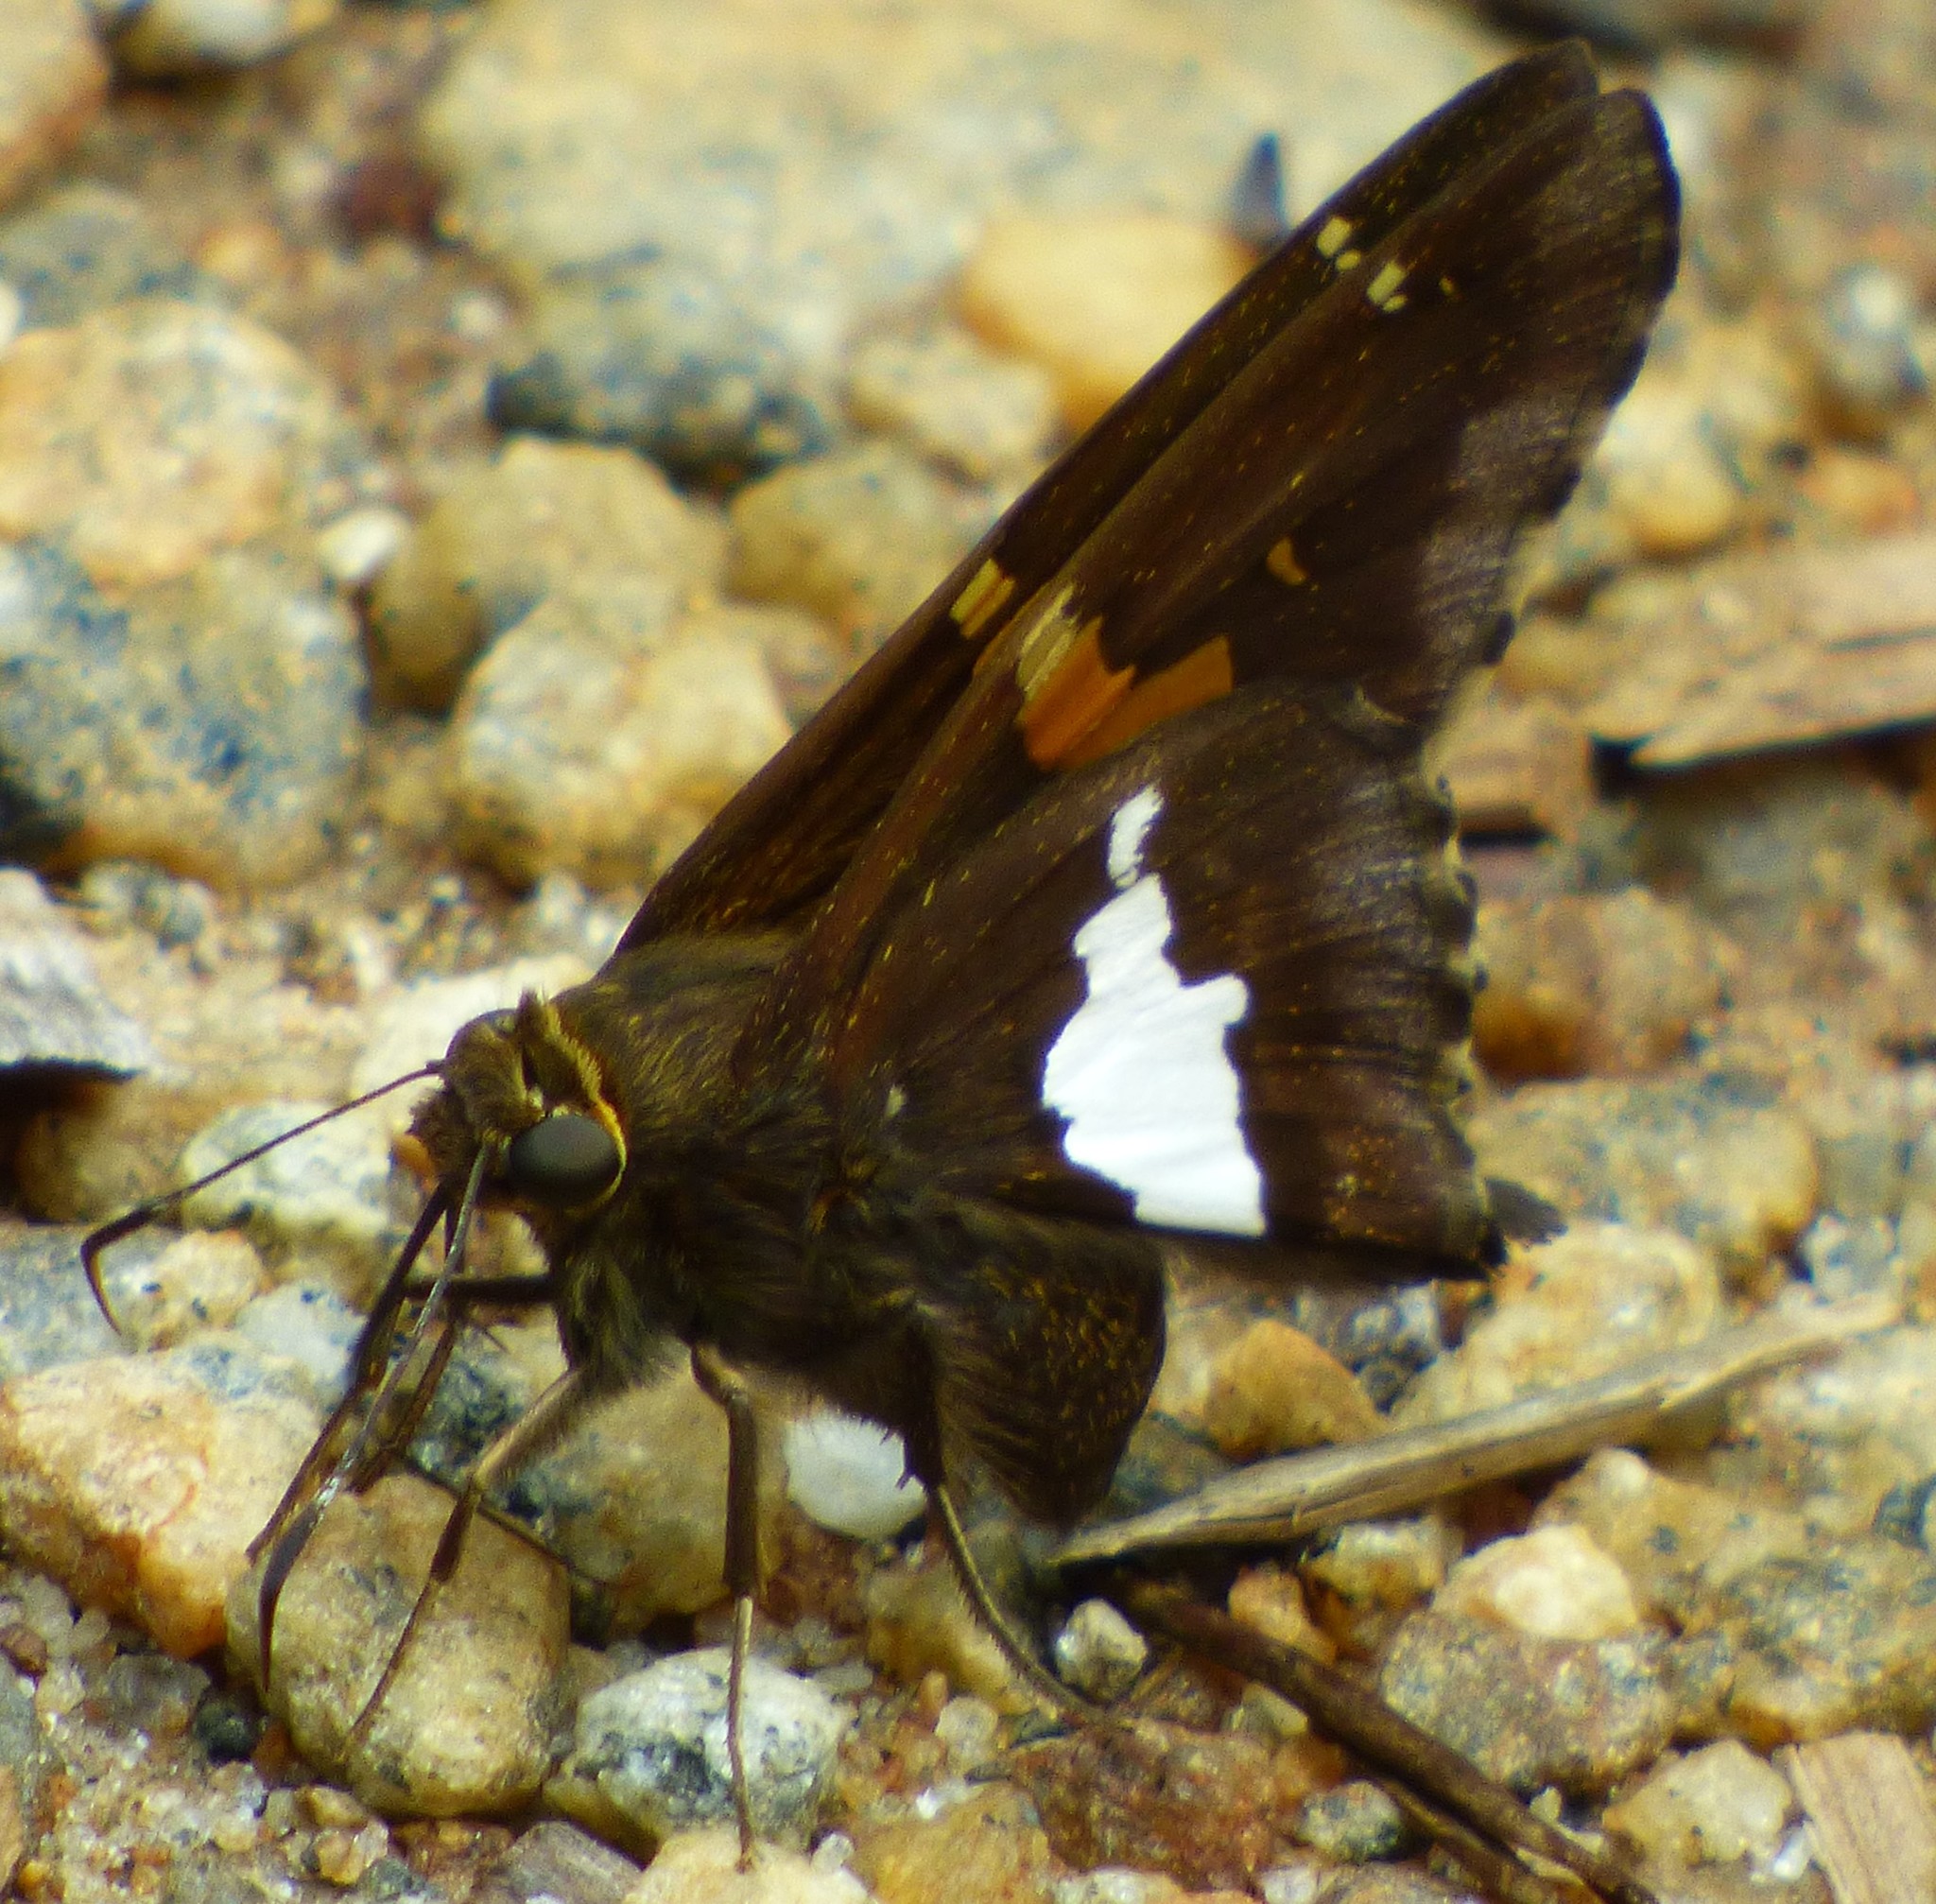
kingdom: Animalia
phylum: Arthropoda
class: Insecta
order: Lepidoptera
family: Hesperiidae
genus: Epargyreus
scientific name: Epargyreus clarus
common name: Silver-spotted skipper
